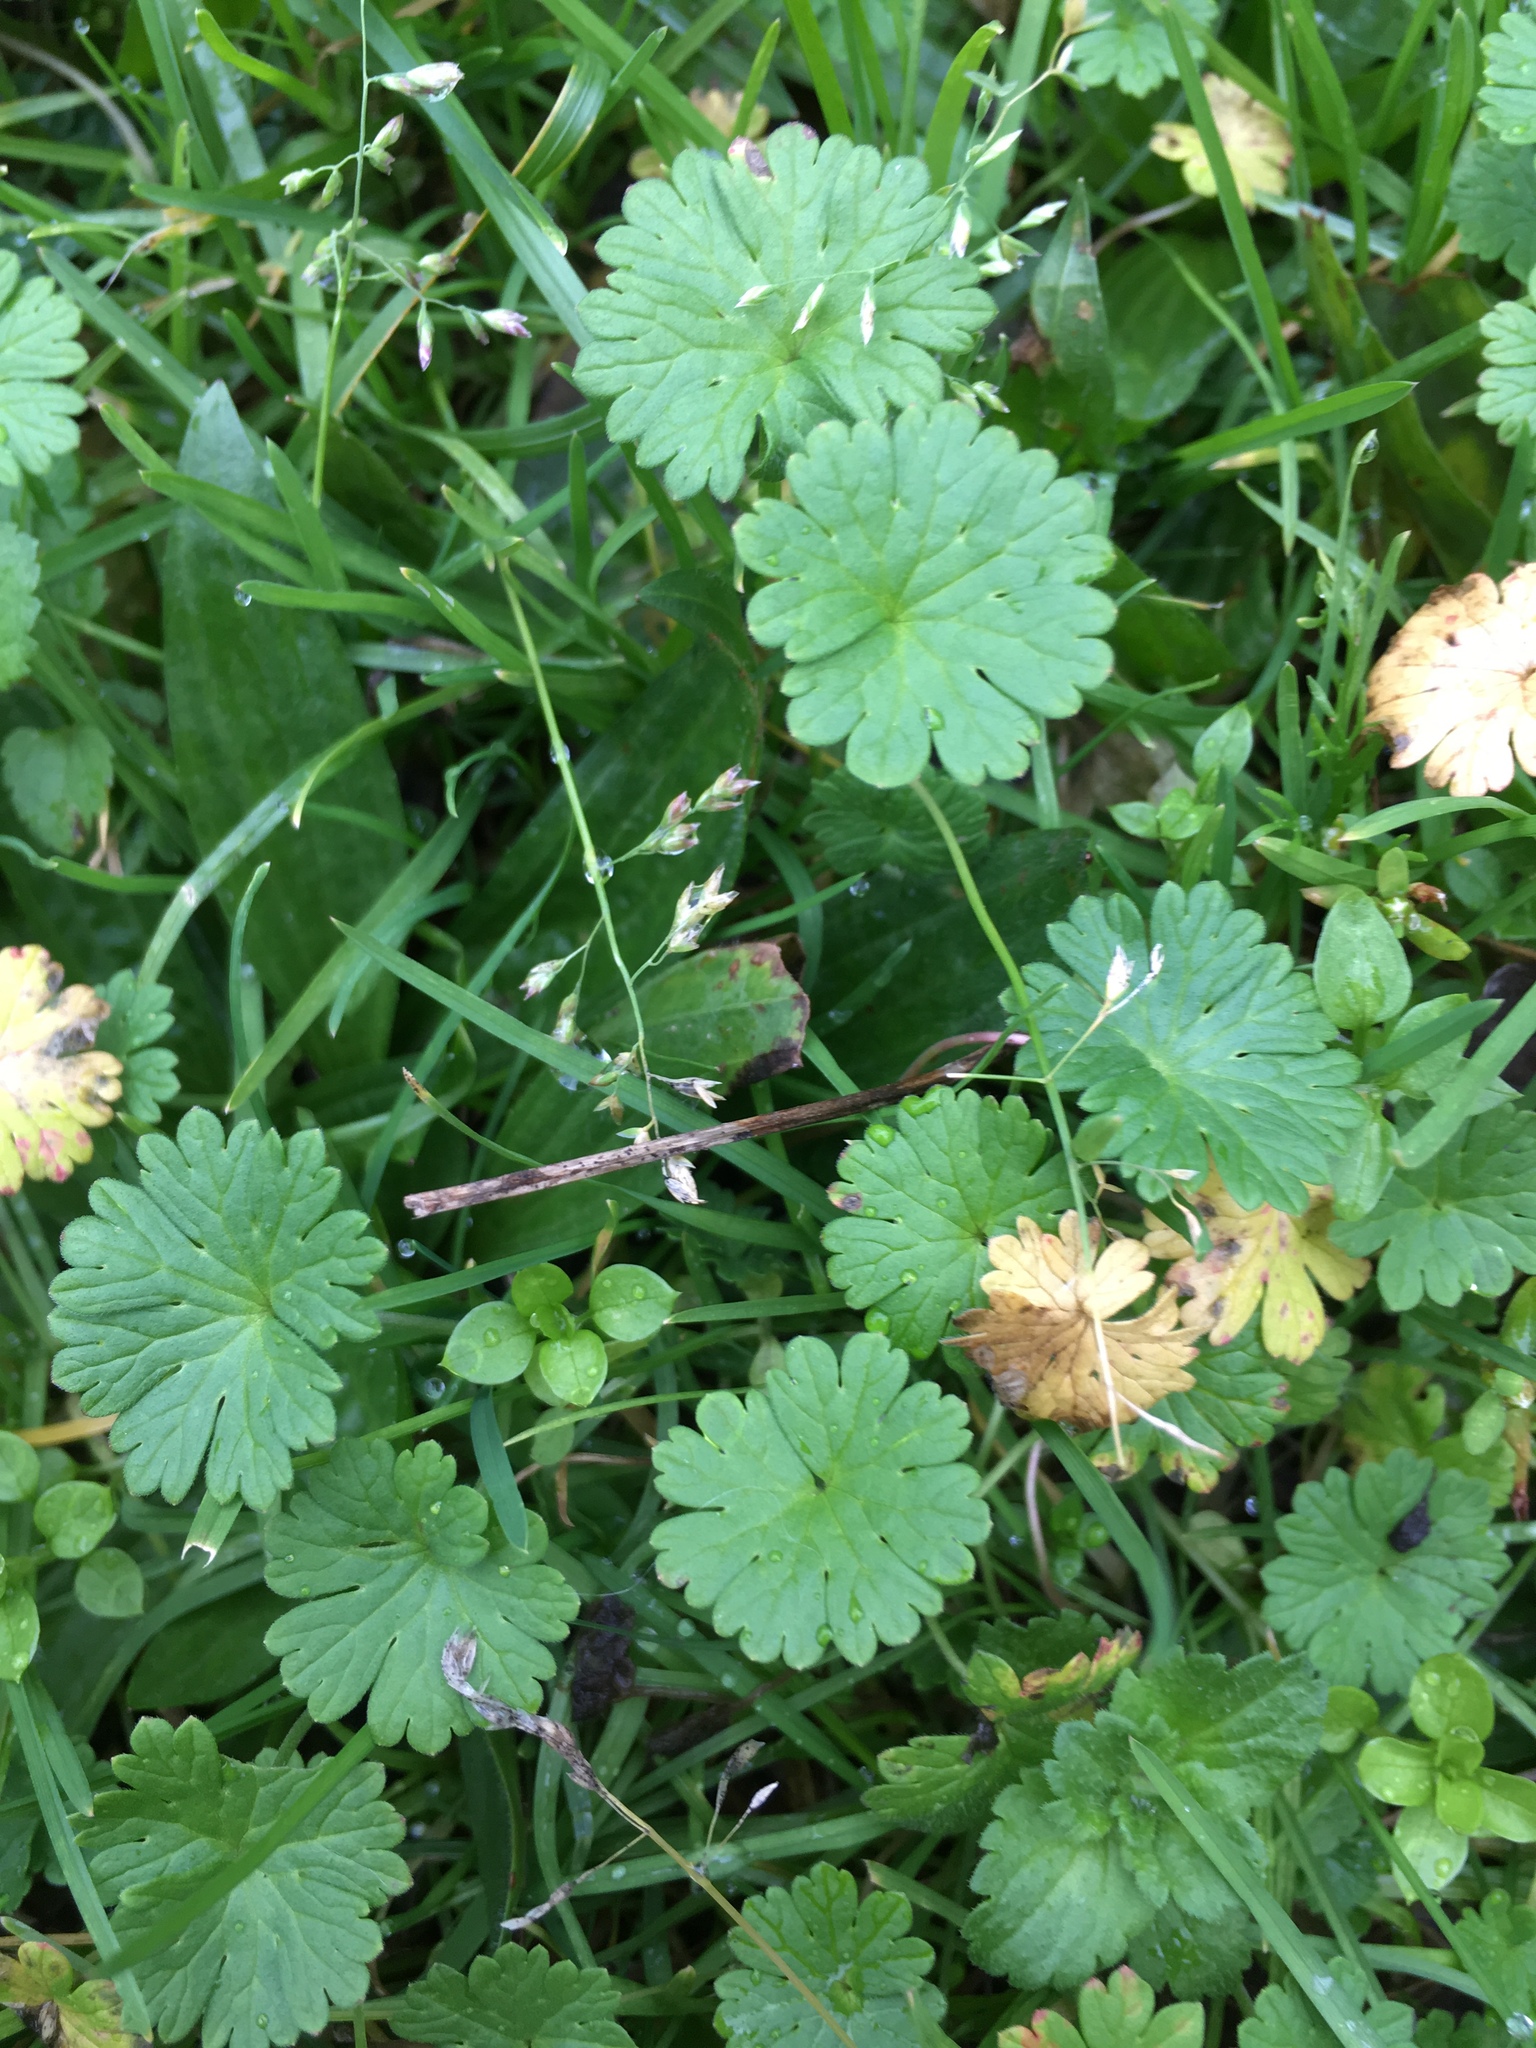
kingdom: Plantae
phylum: Tracheophyta
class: Magnoliopsida
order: Geraniales
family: Geraniaceae
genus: Geranium
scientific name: Geranium molle
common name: Dove's-foot crane's-bill
